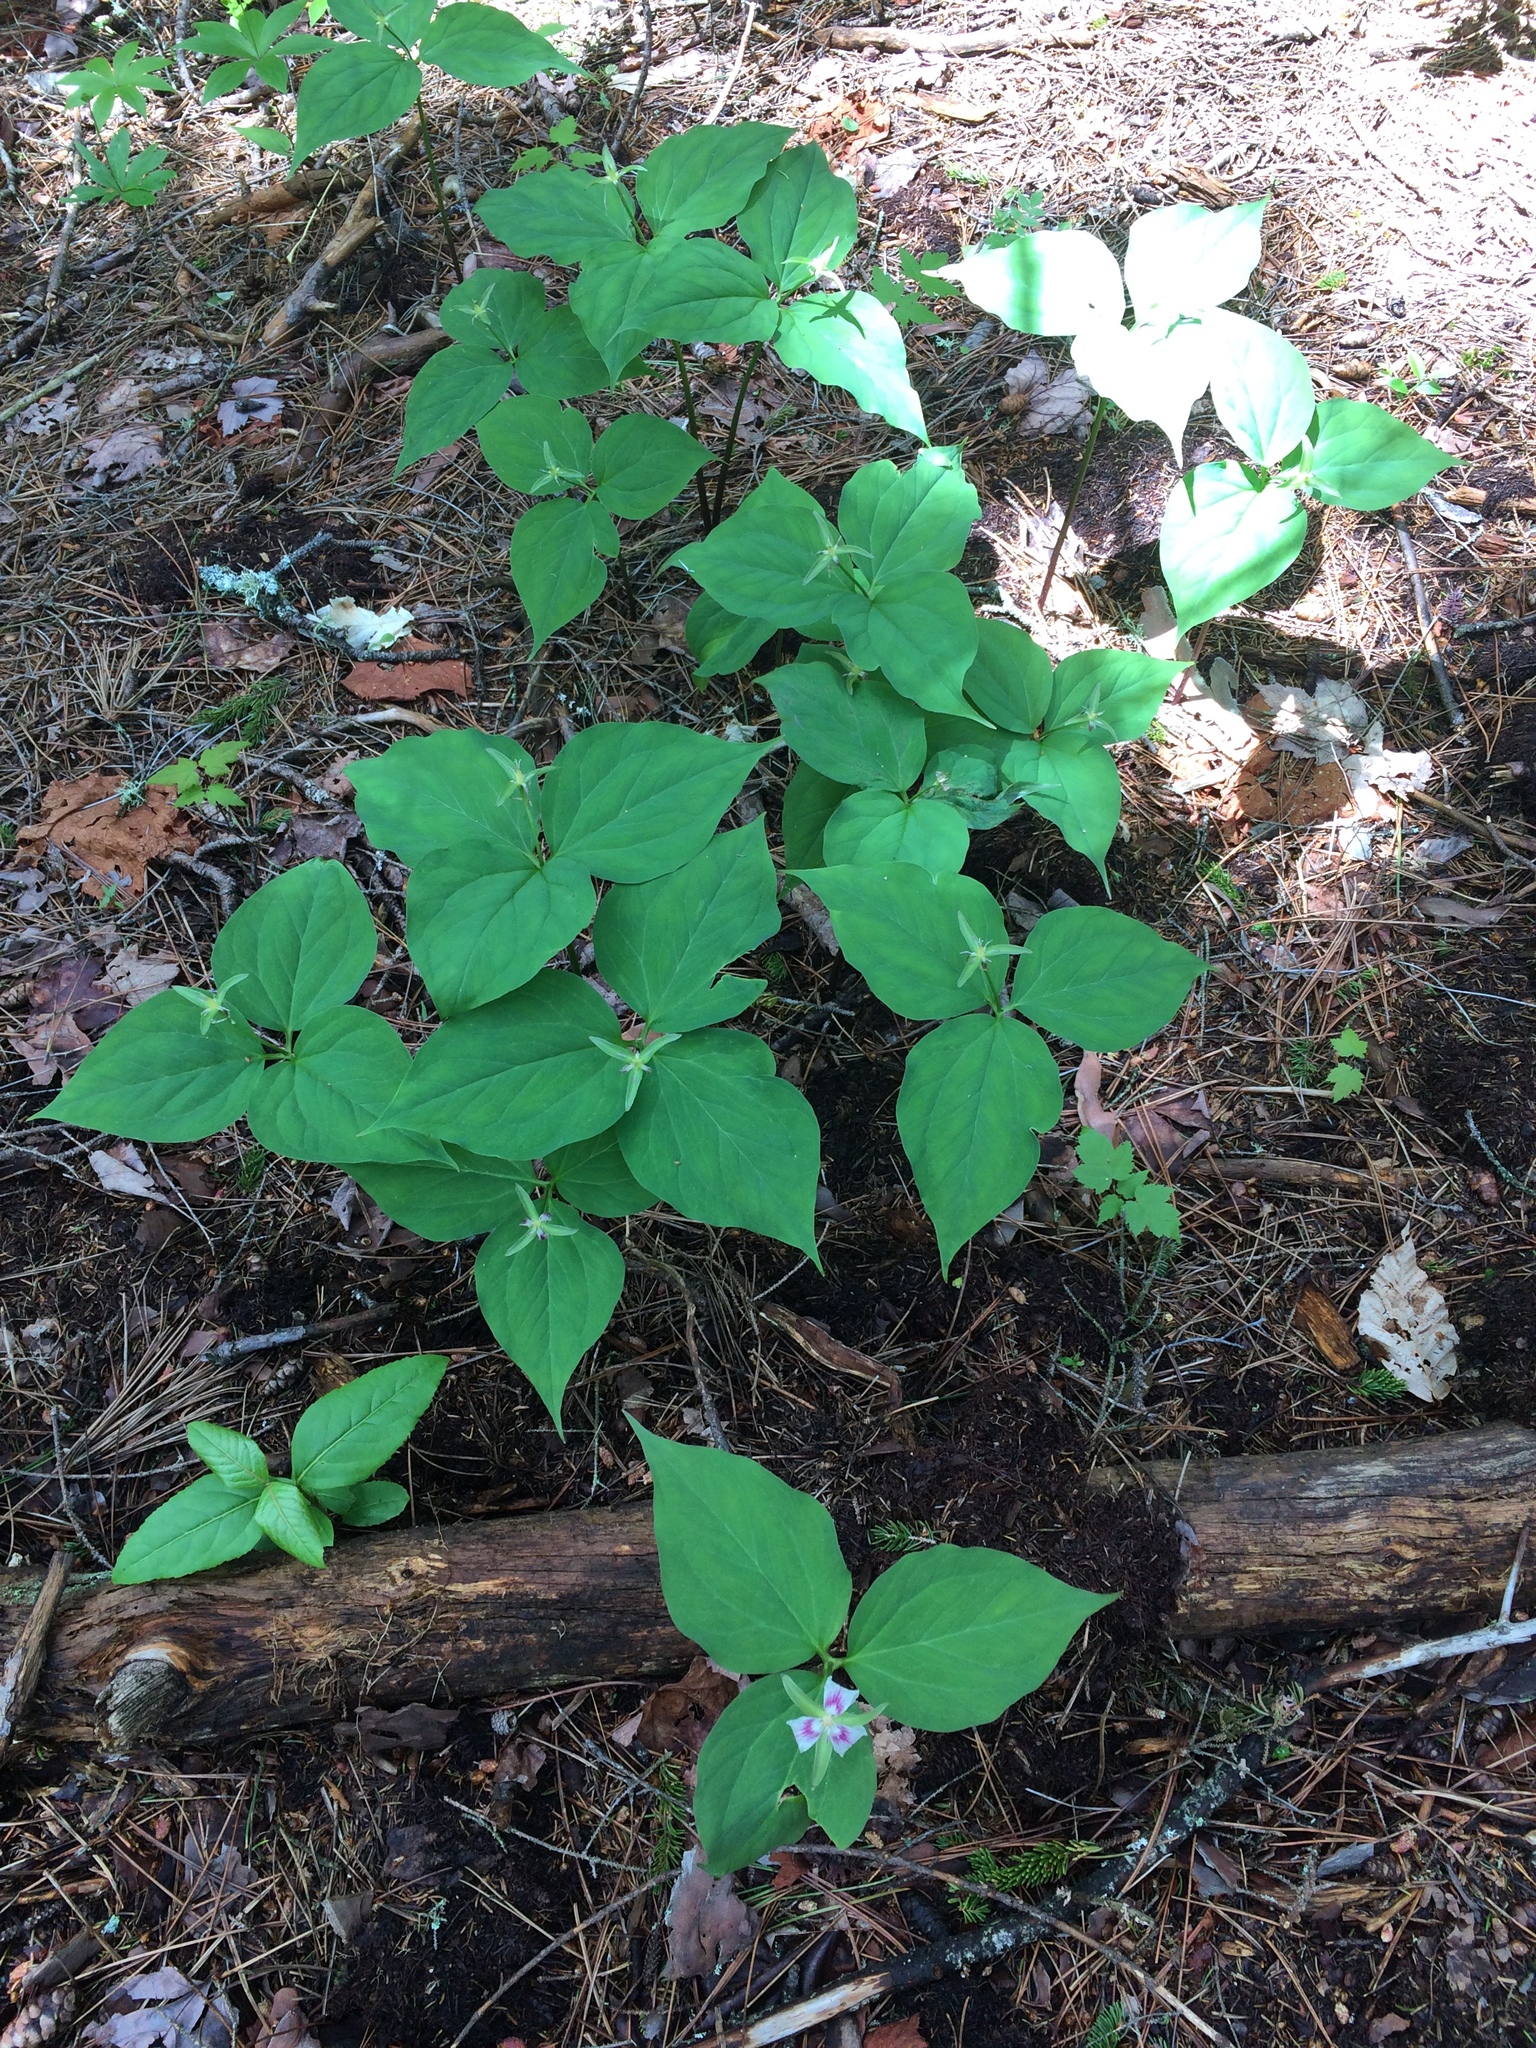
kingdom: Plantae
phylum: Tracheophyta
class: Liliopsida
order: Liliales
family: Melanthiaceae
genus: Trillium
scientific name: Trillium undulatum
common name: Paint trillium
